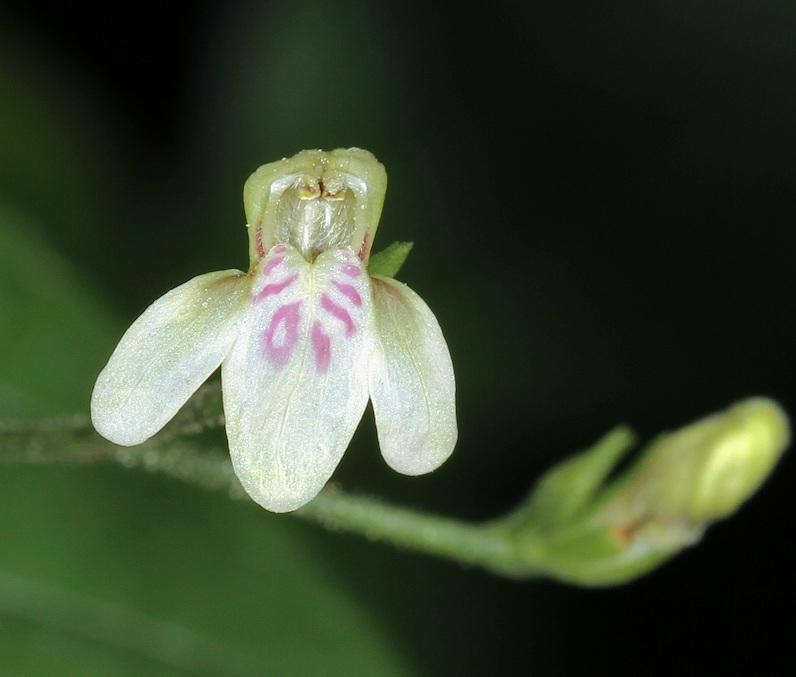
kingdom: Plantae
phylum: Tracheophyta
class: Magnoliopsida
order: Lamiales
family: Acanthaceae
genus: Justicia
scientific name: Justicia scandens
